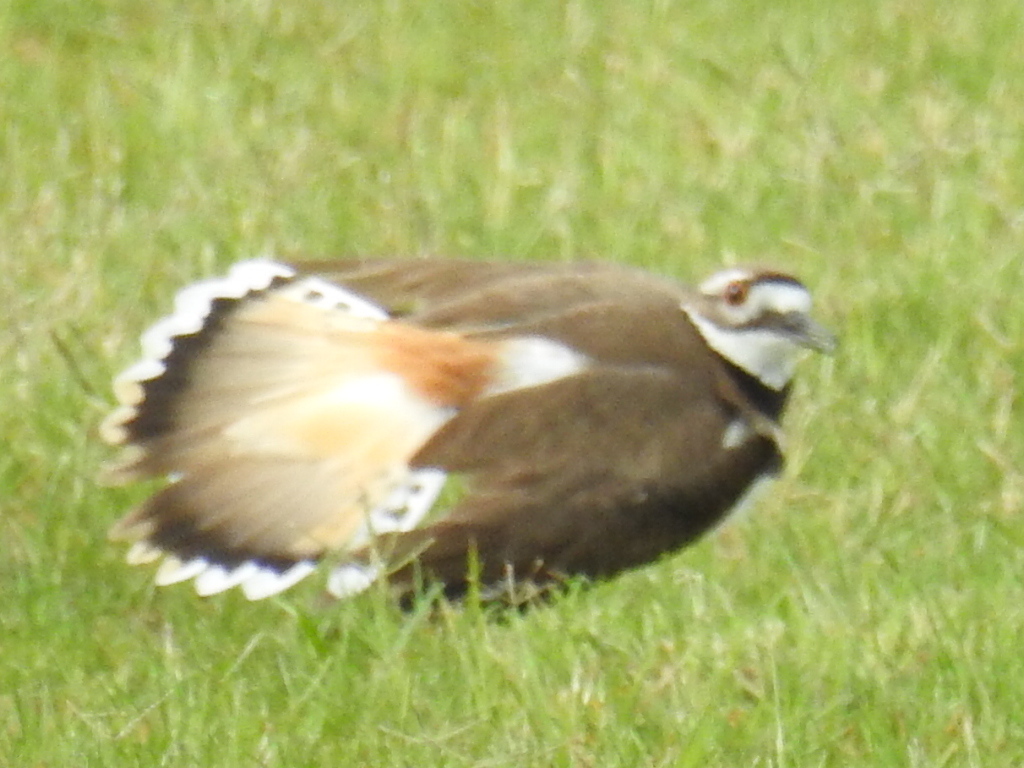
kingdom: Animalia
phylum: Chordata
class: Aves
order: Charadriiformes
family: Charadriidae
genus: Charadrius
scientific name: Charadrius vociferus
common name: Killdeer
